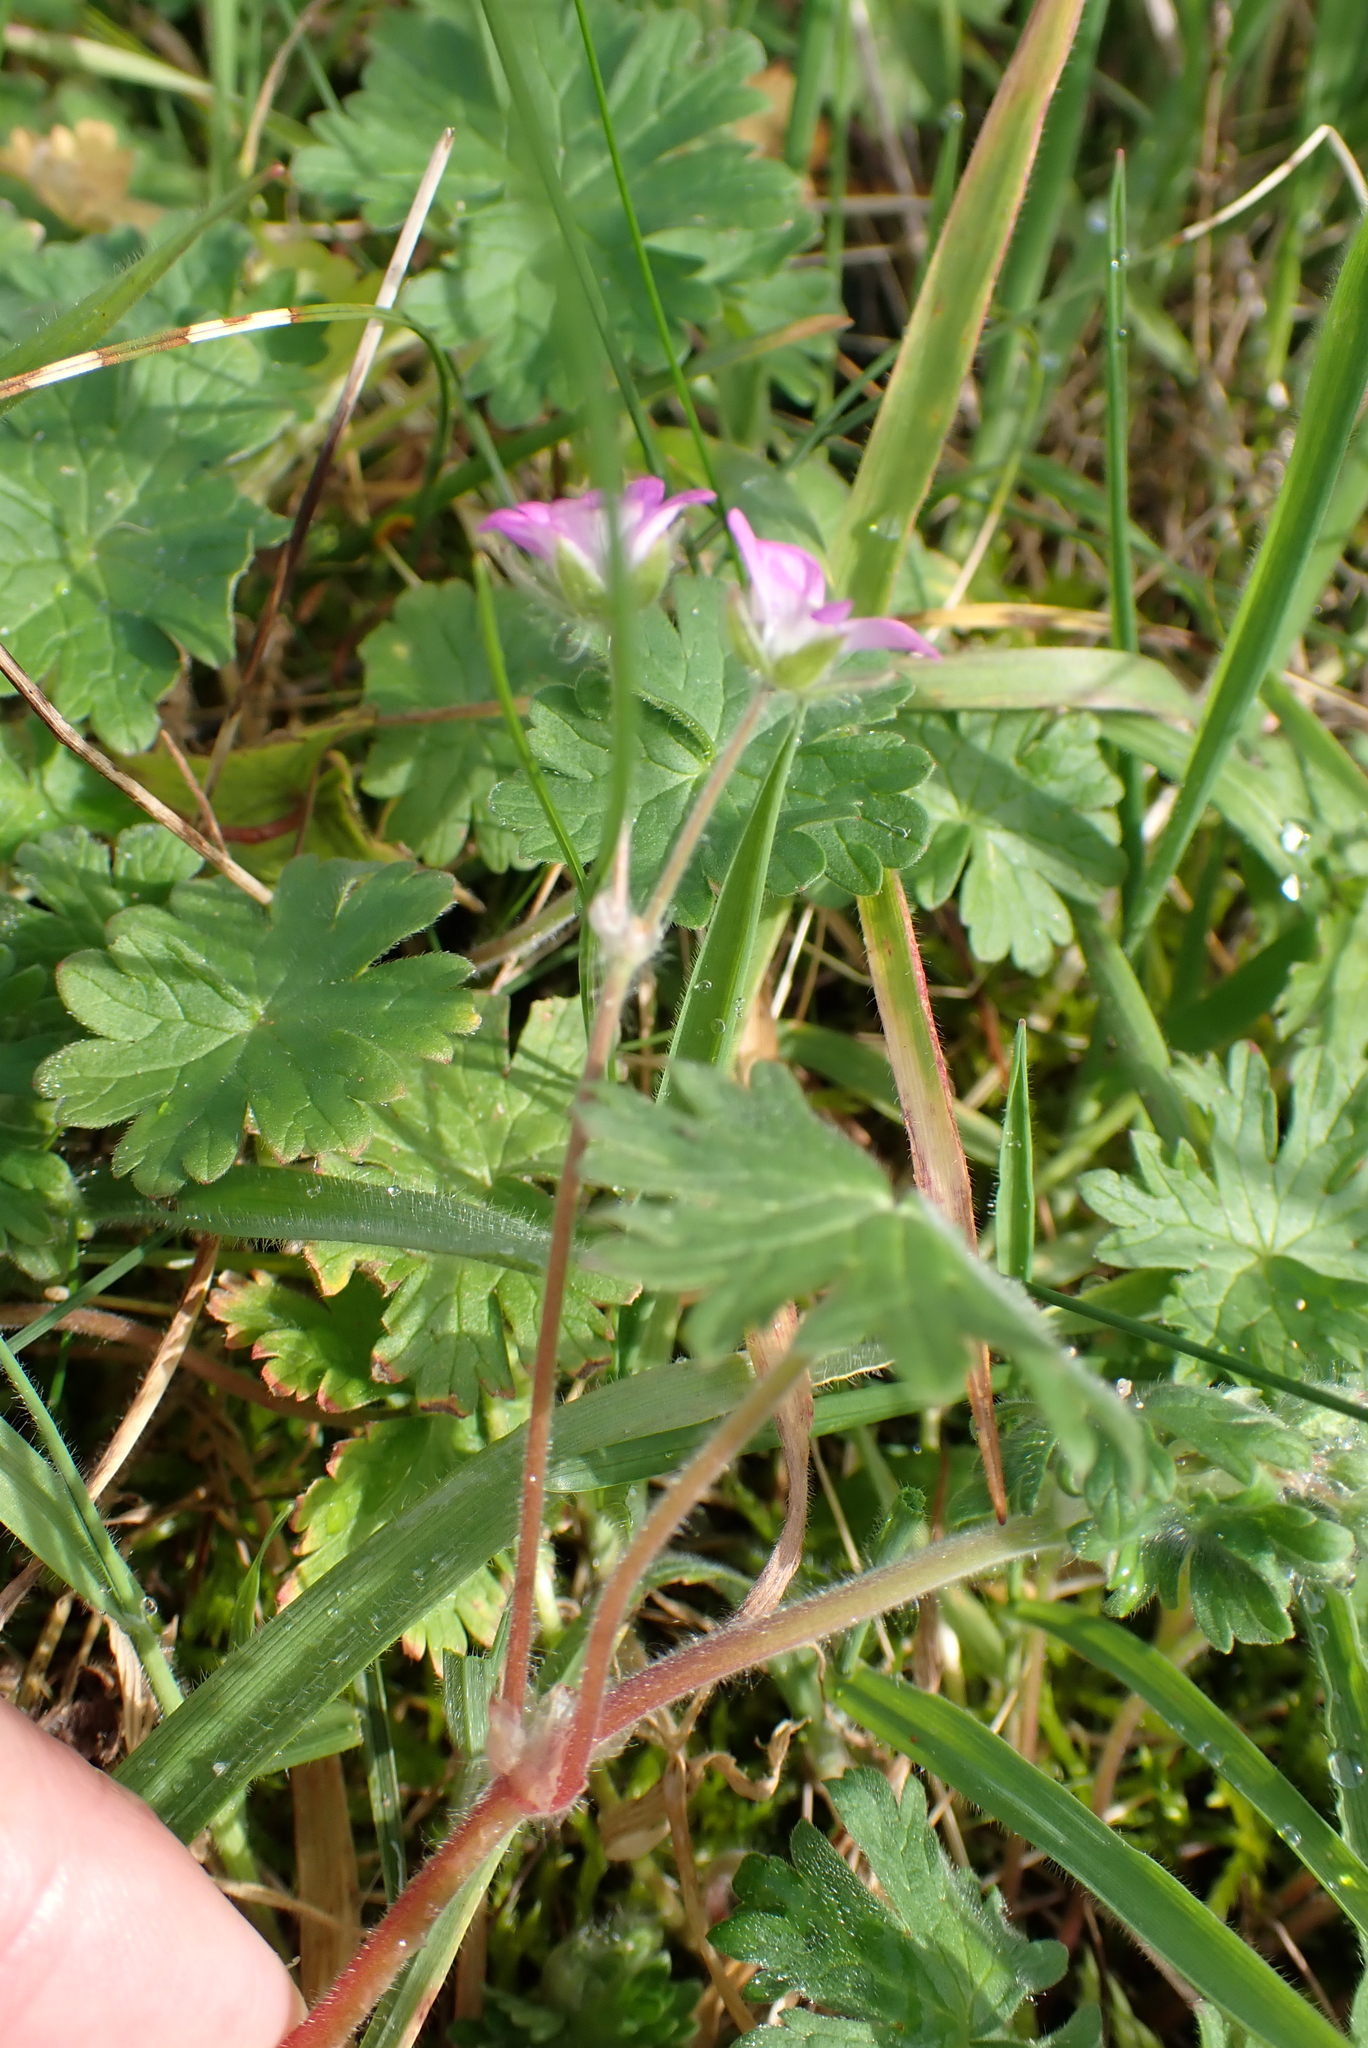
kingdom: Plantae
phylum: Tracheophyta
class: Magnoliopsida
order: Geraniales
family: Geraniaceae
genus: Geranium
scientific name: Geranium molle
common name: Dove's-foot crane's-bill
